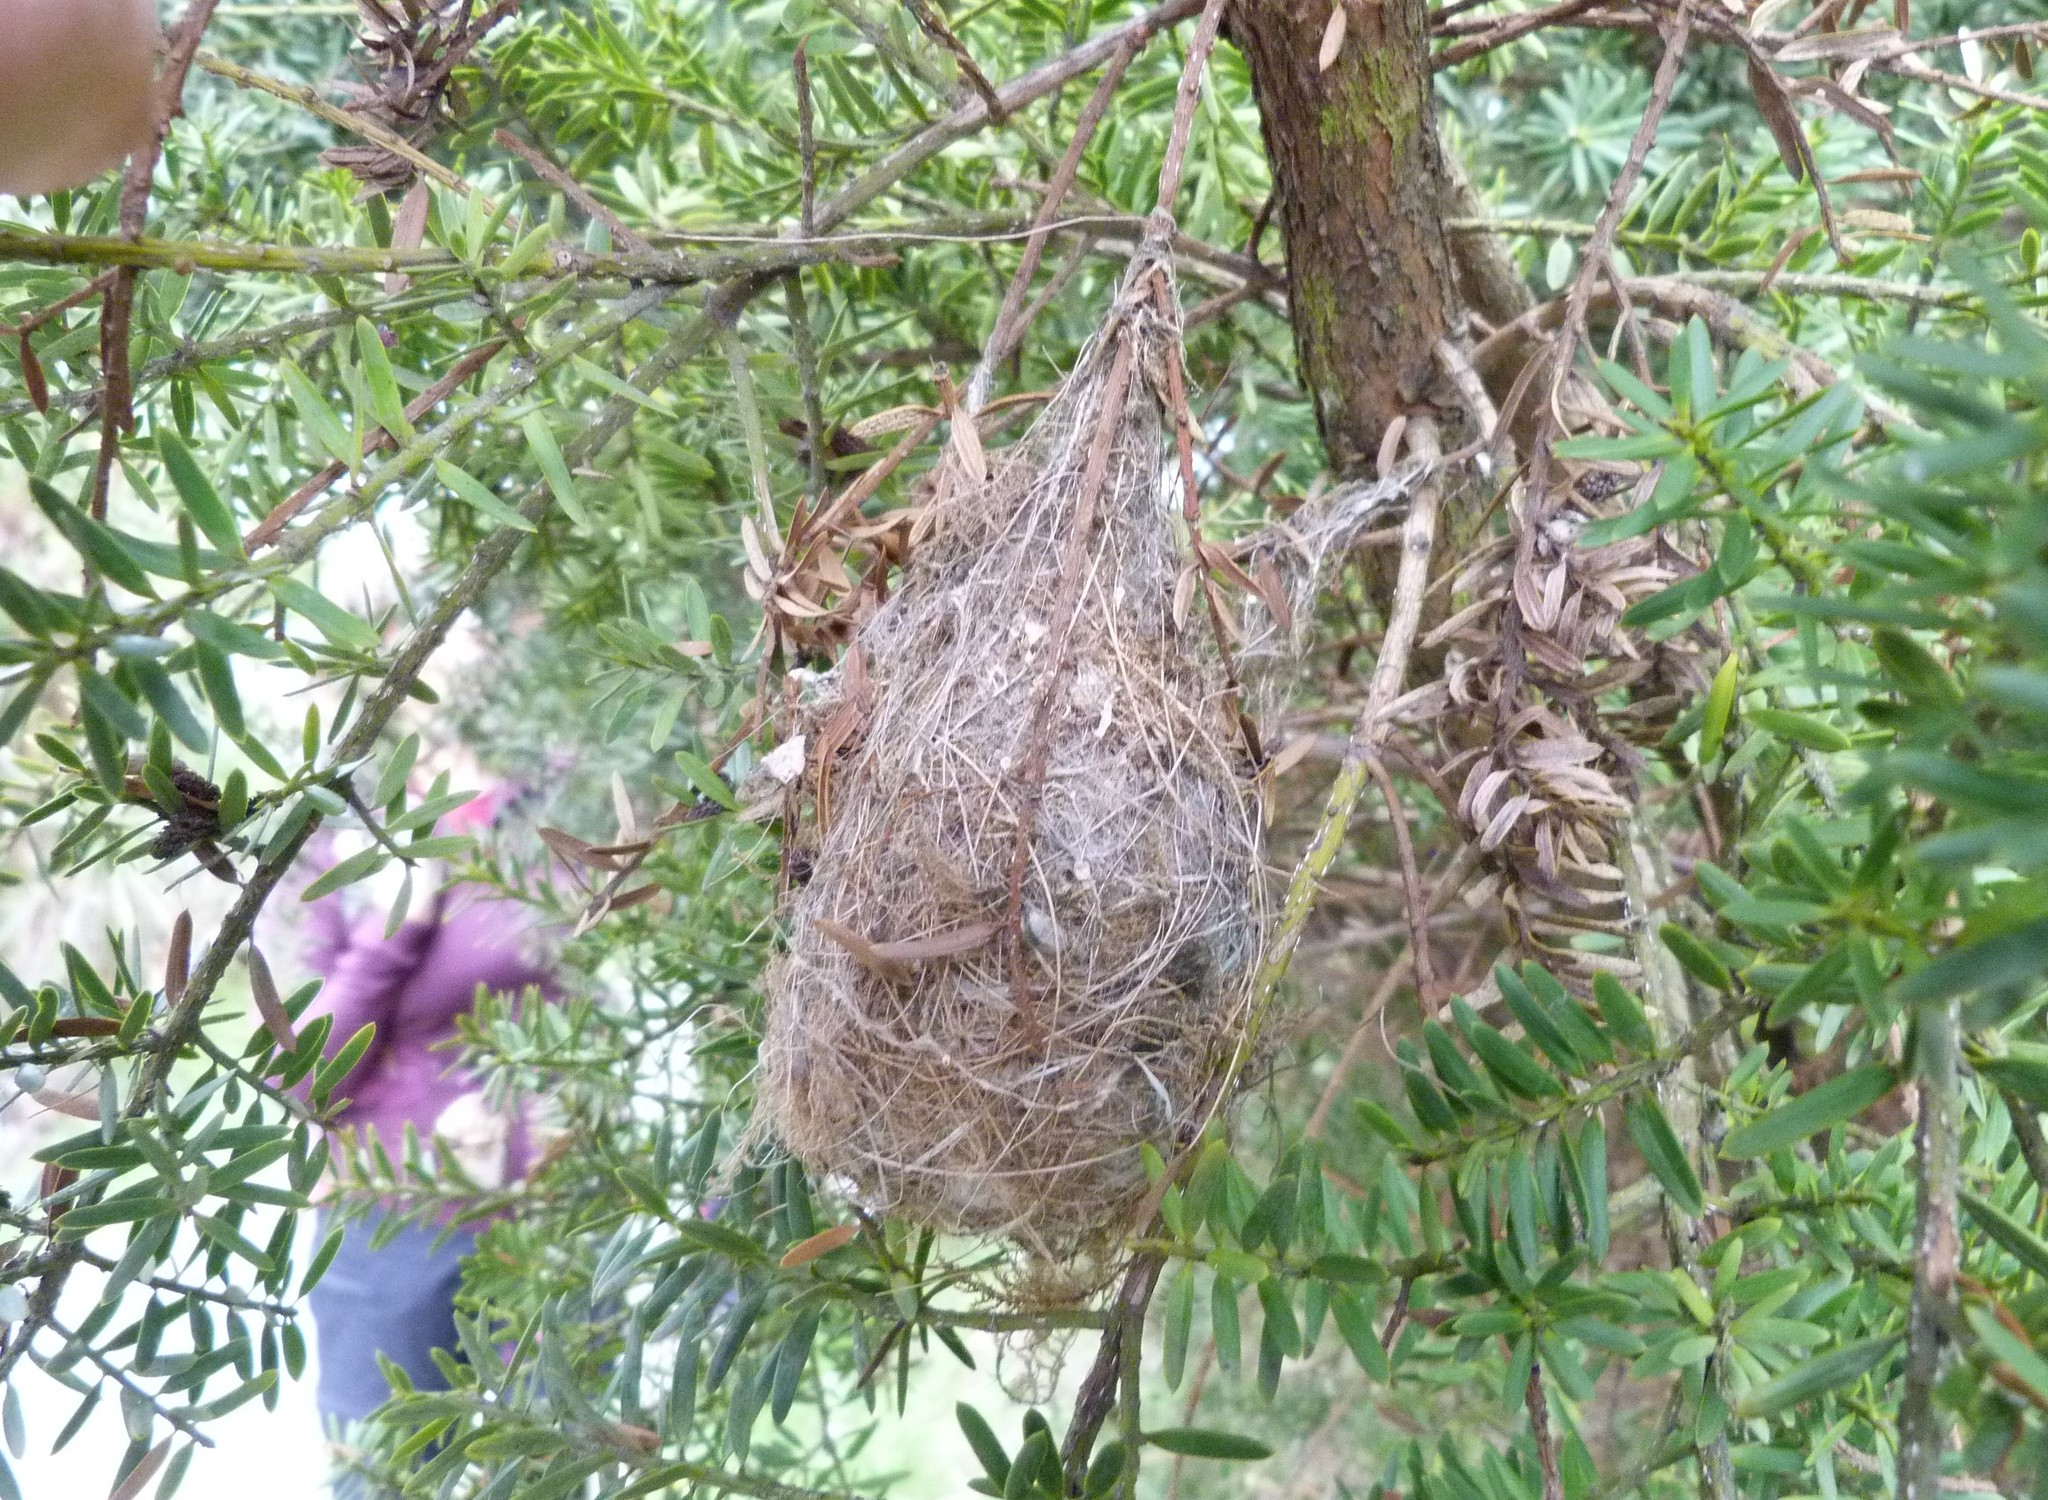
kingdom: Animalia
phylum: Chordata
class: Aves
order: Passeriformes
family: Acanthizidae
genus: Gerygone
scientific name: Gerygone igata
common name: Grey gerygone
